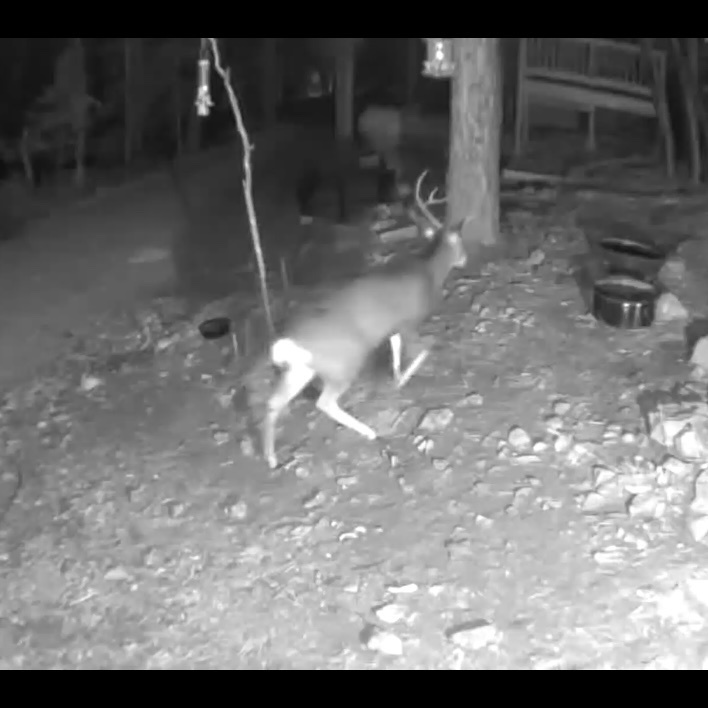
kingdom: Animalia
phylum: Chordata
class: Mammalia
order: Artiodactyla
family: Cervidae
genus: Odocoileus
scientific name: Odocoileus hemionus
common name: Mule deer
